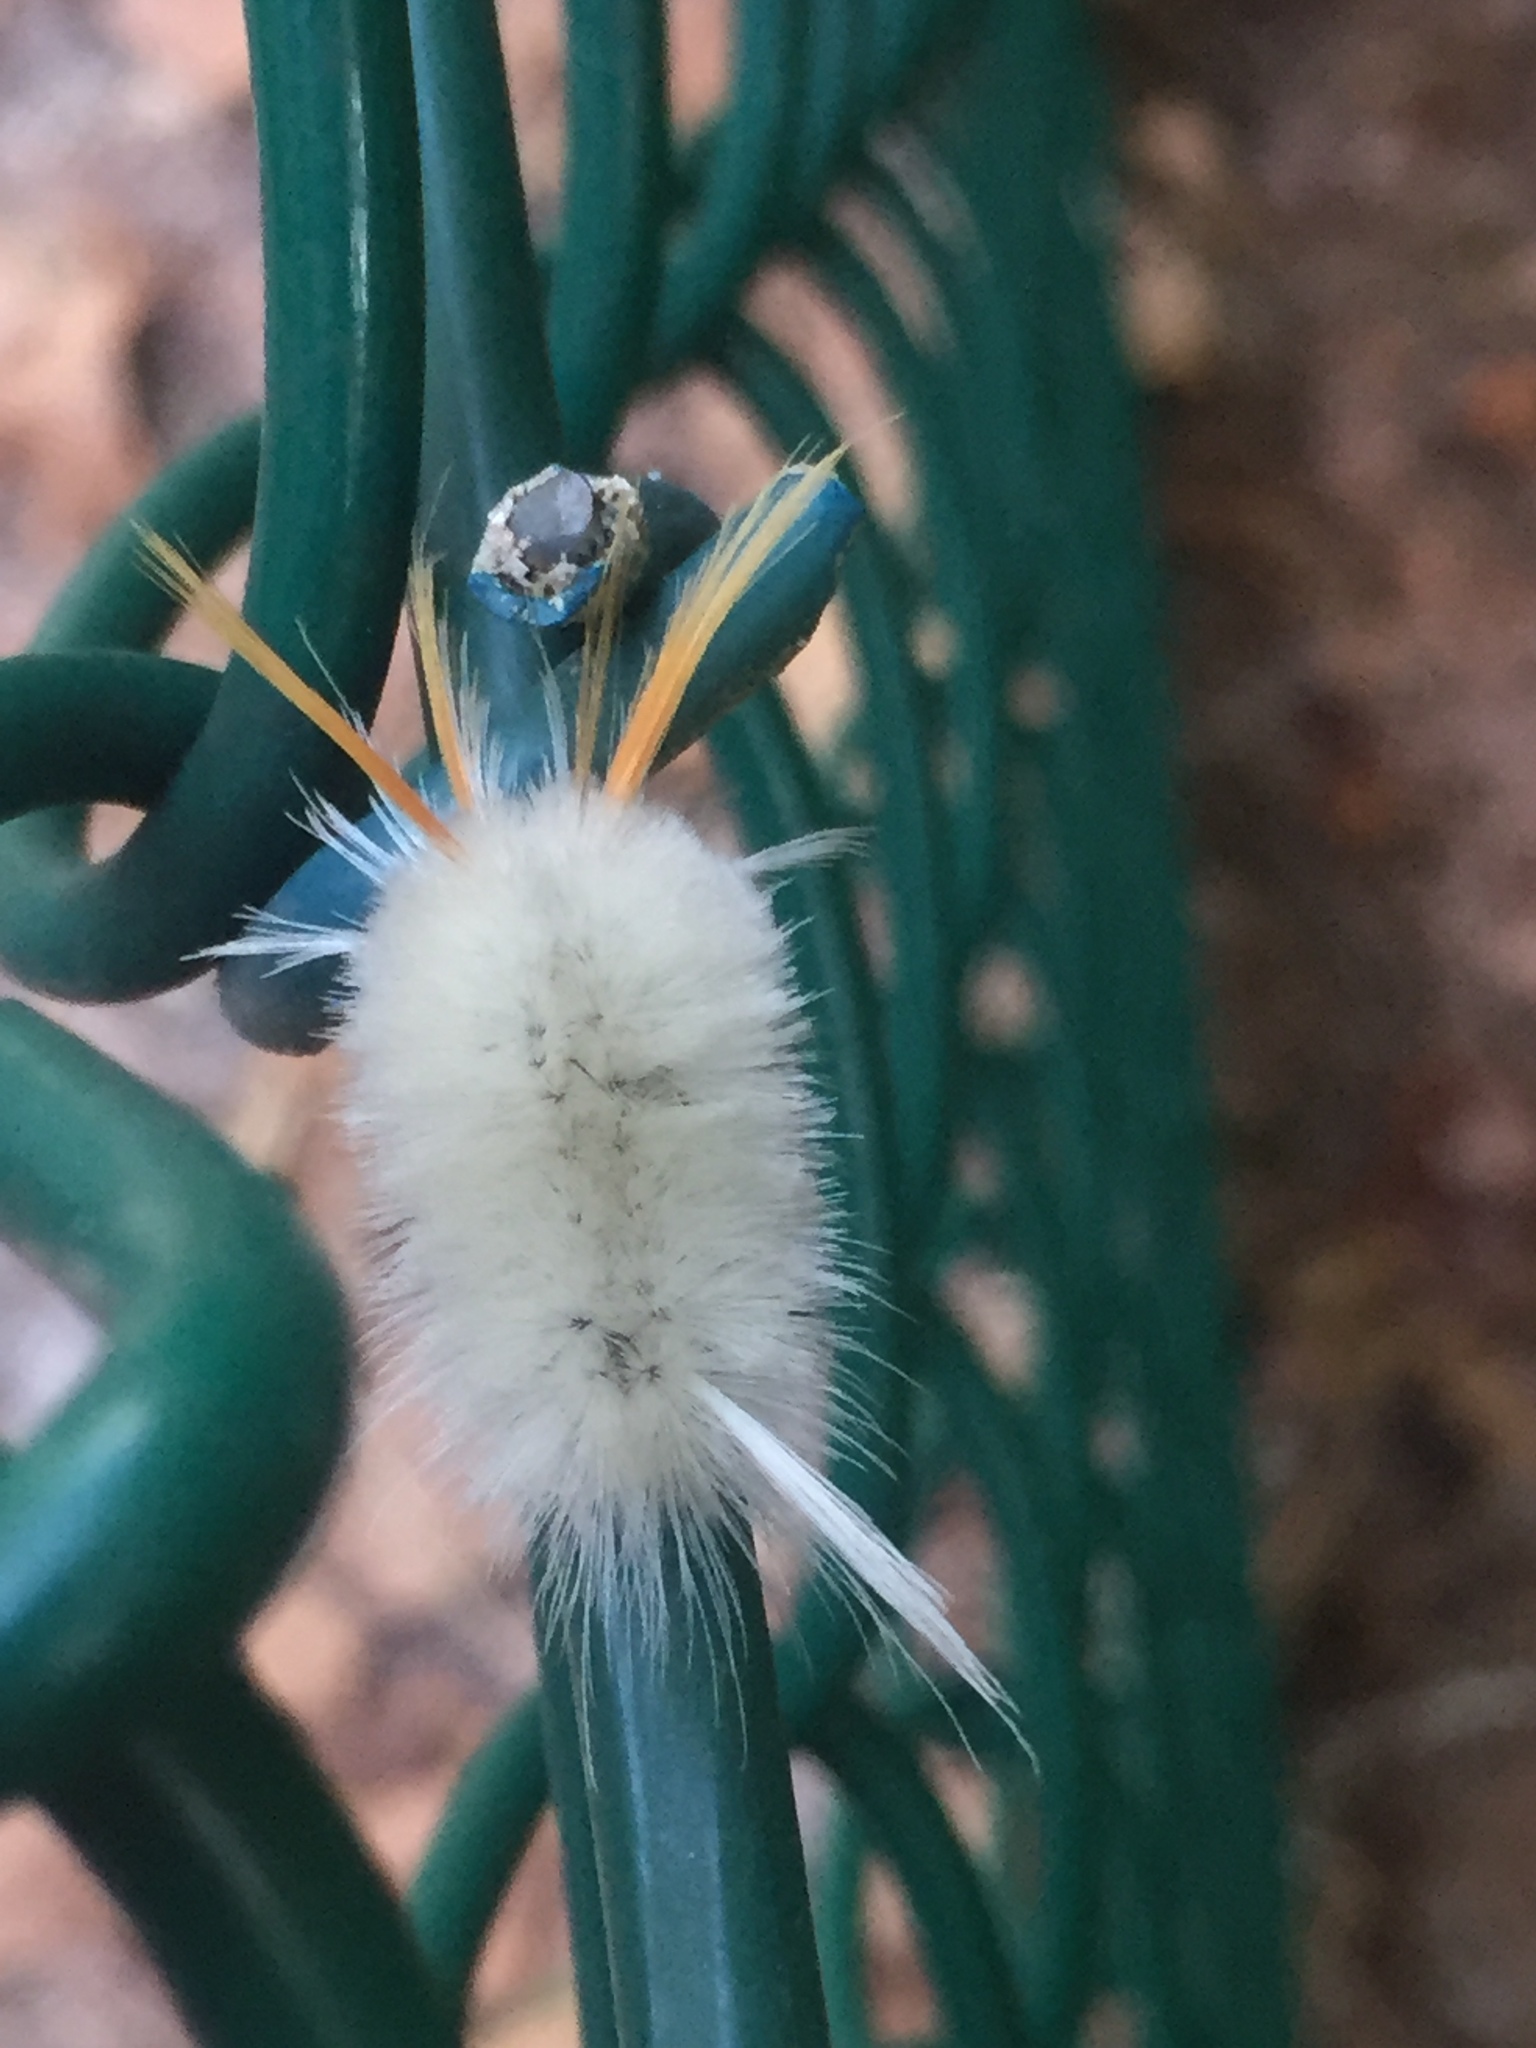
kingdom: Animalia
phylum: Arthropoda
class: Insecta
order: Lepidoptera
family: Erebidae
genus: Halysidota
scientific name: Halysidota harrisii
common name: Sycamore tussock moth
